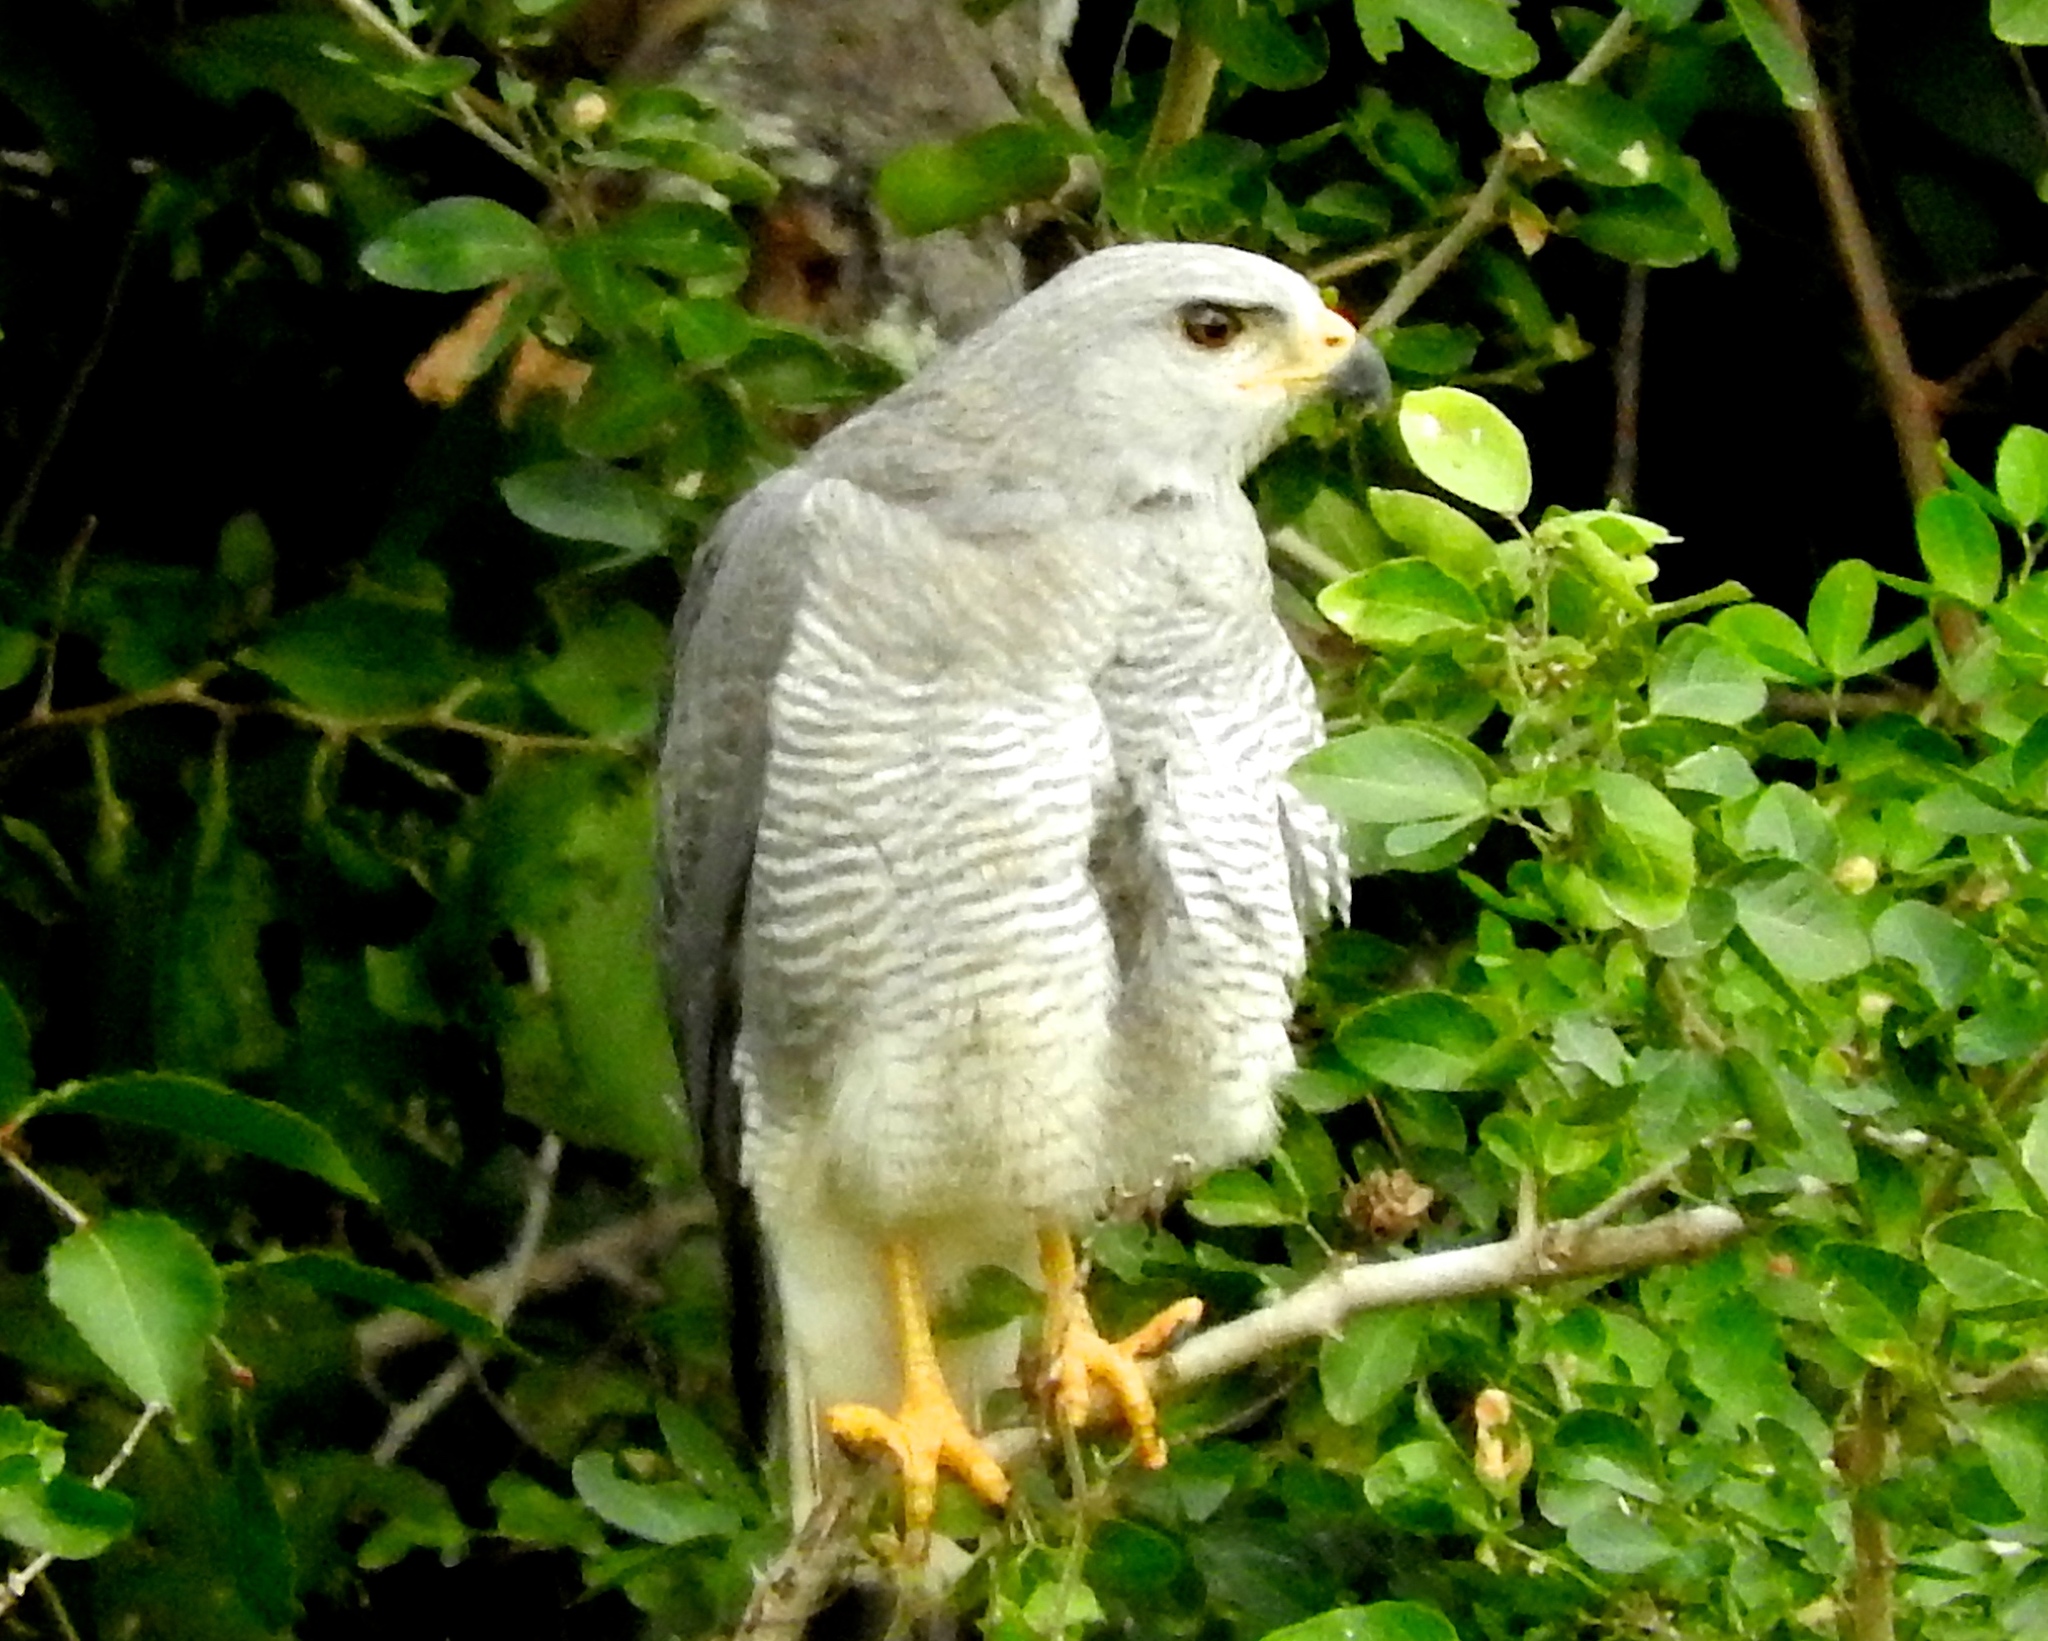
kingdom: Animalia
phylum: Chordata
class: Aves
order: Accipitriformes
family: Accipitridae
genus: Buteo
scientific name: Buteo nitidus
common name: Grey-lined hawk
